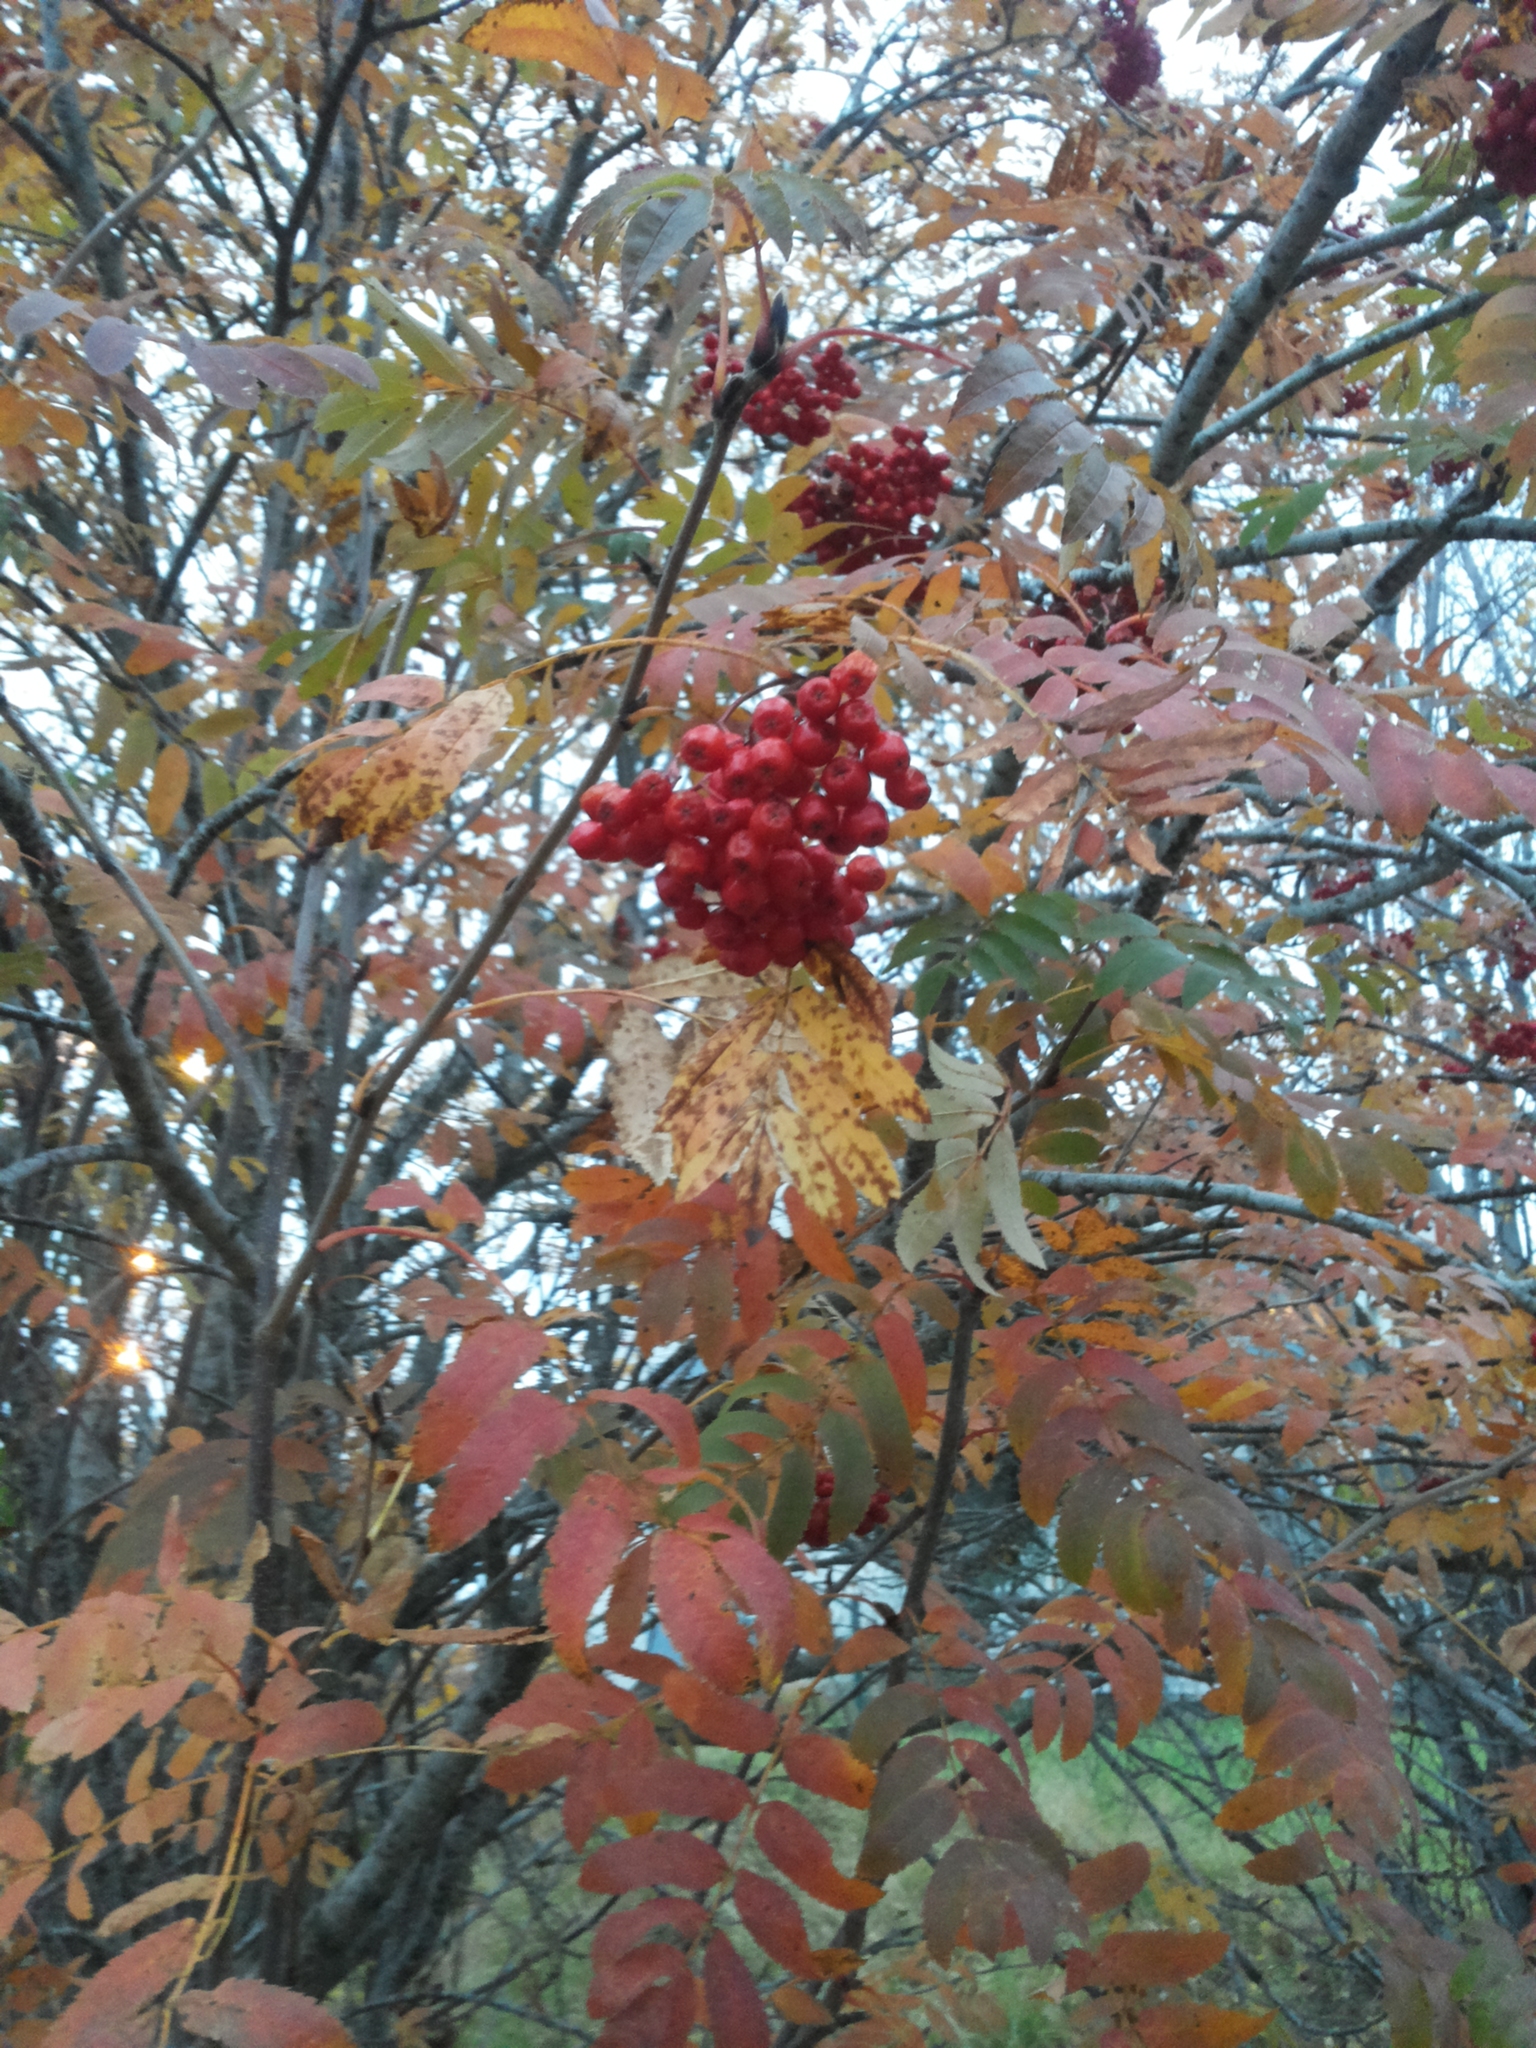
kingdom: Plantae
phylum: Tracheophyta
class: Magnoliopsida
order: Rosales
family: Rosaceae
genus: Sorbus
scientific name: Sorbus aucuparia
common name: Rowan
